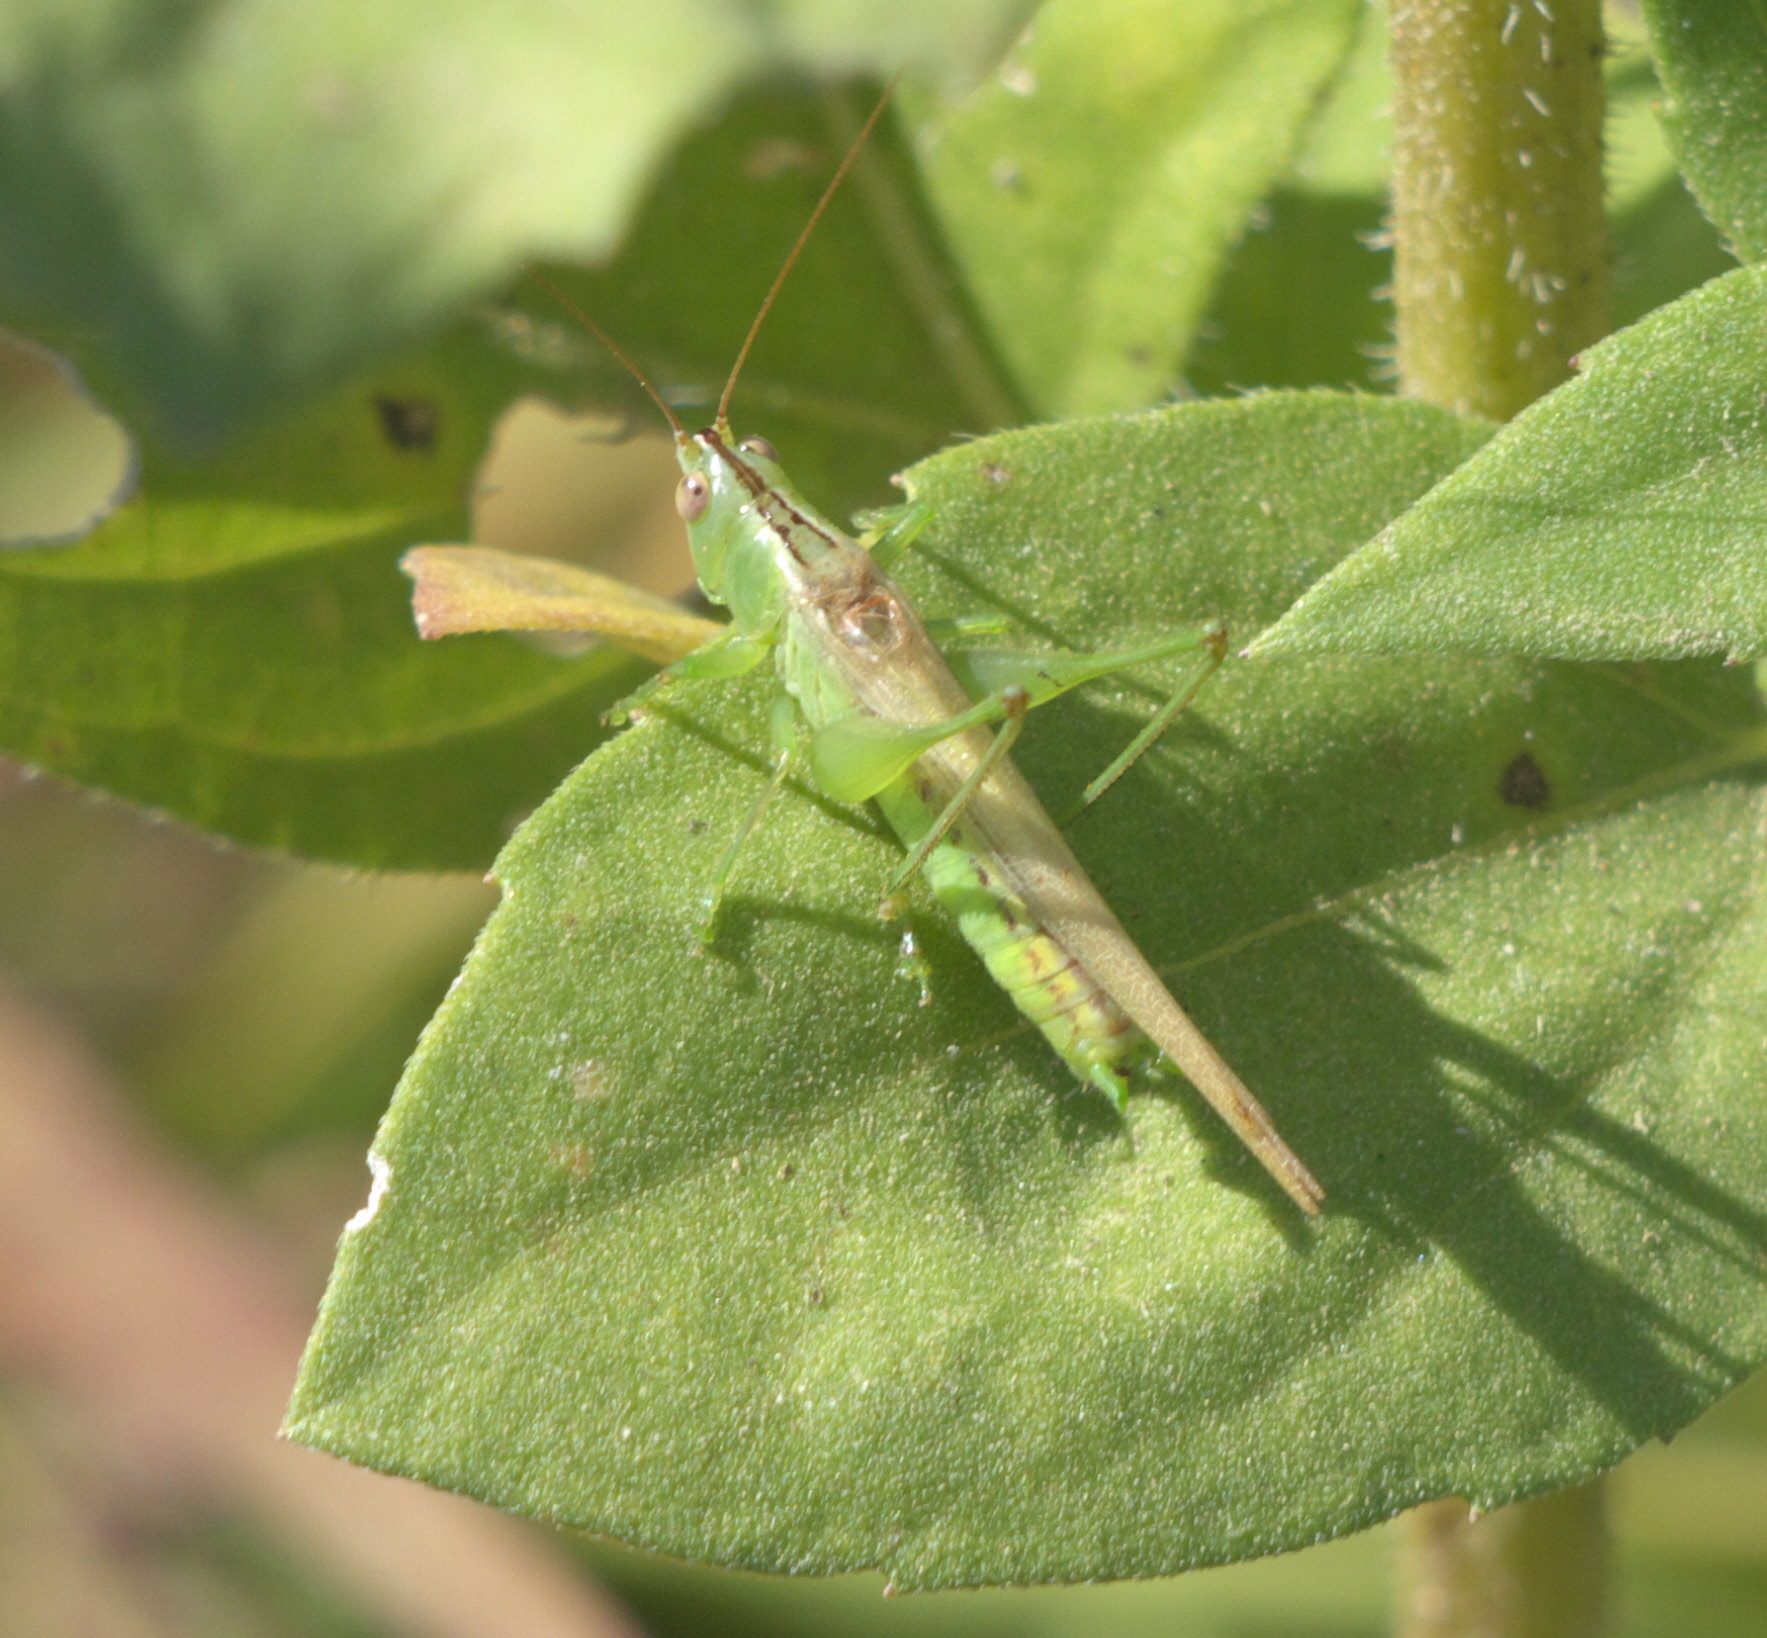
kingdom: Animalia
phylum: Arthropoda
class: Insecta
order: Orthoptera
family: Tettigoniidae
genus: Conocephalus
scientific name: Conocephalus fasciatus
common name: Slender meadow katydid
